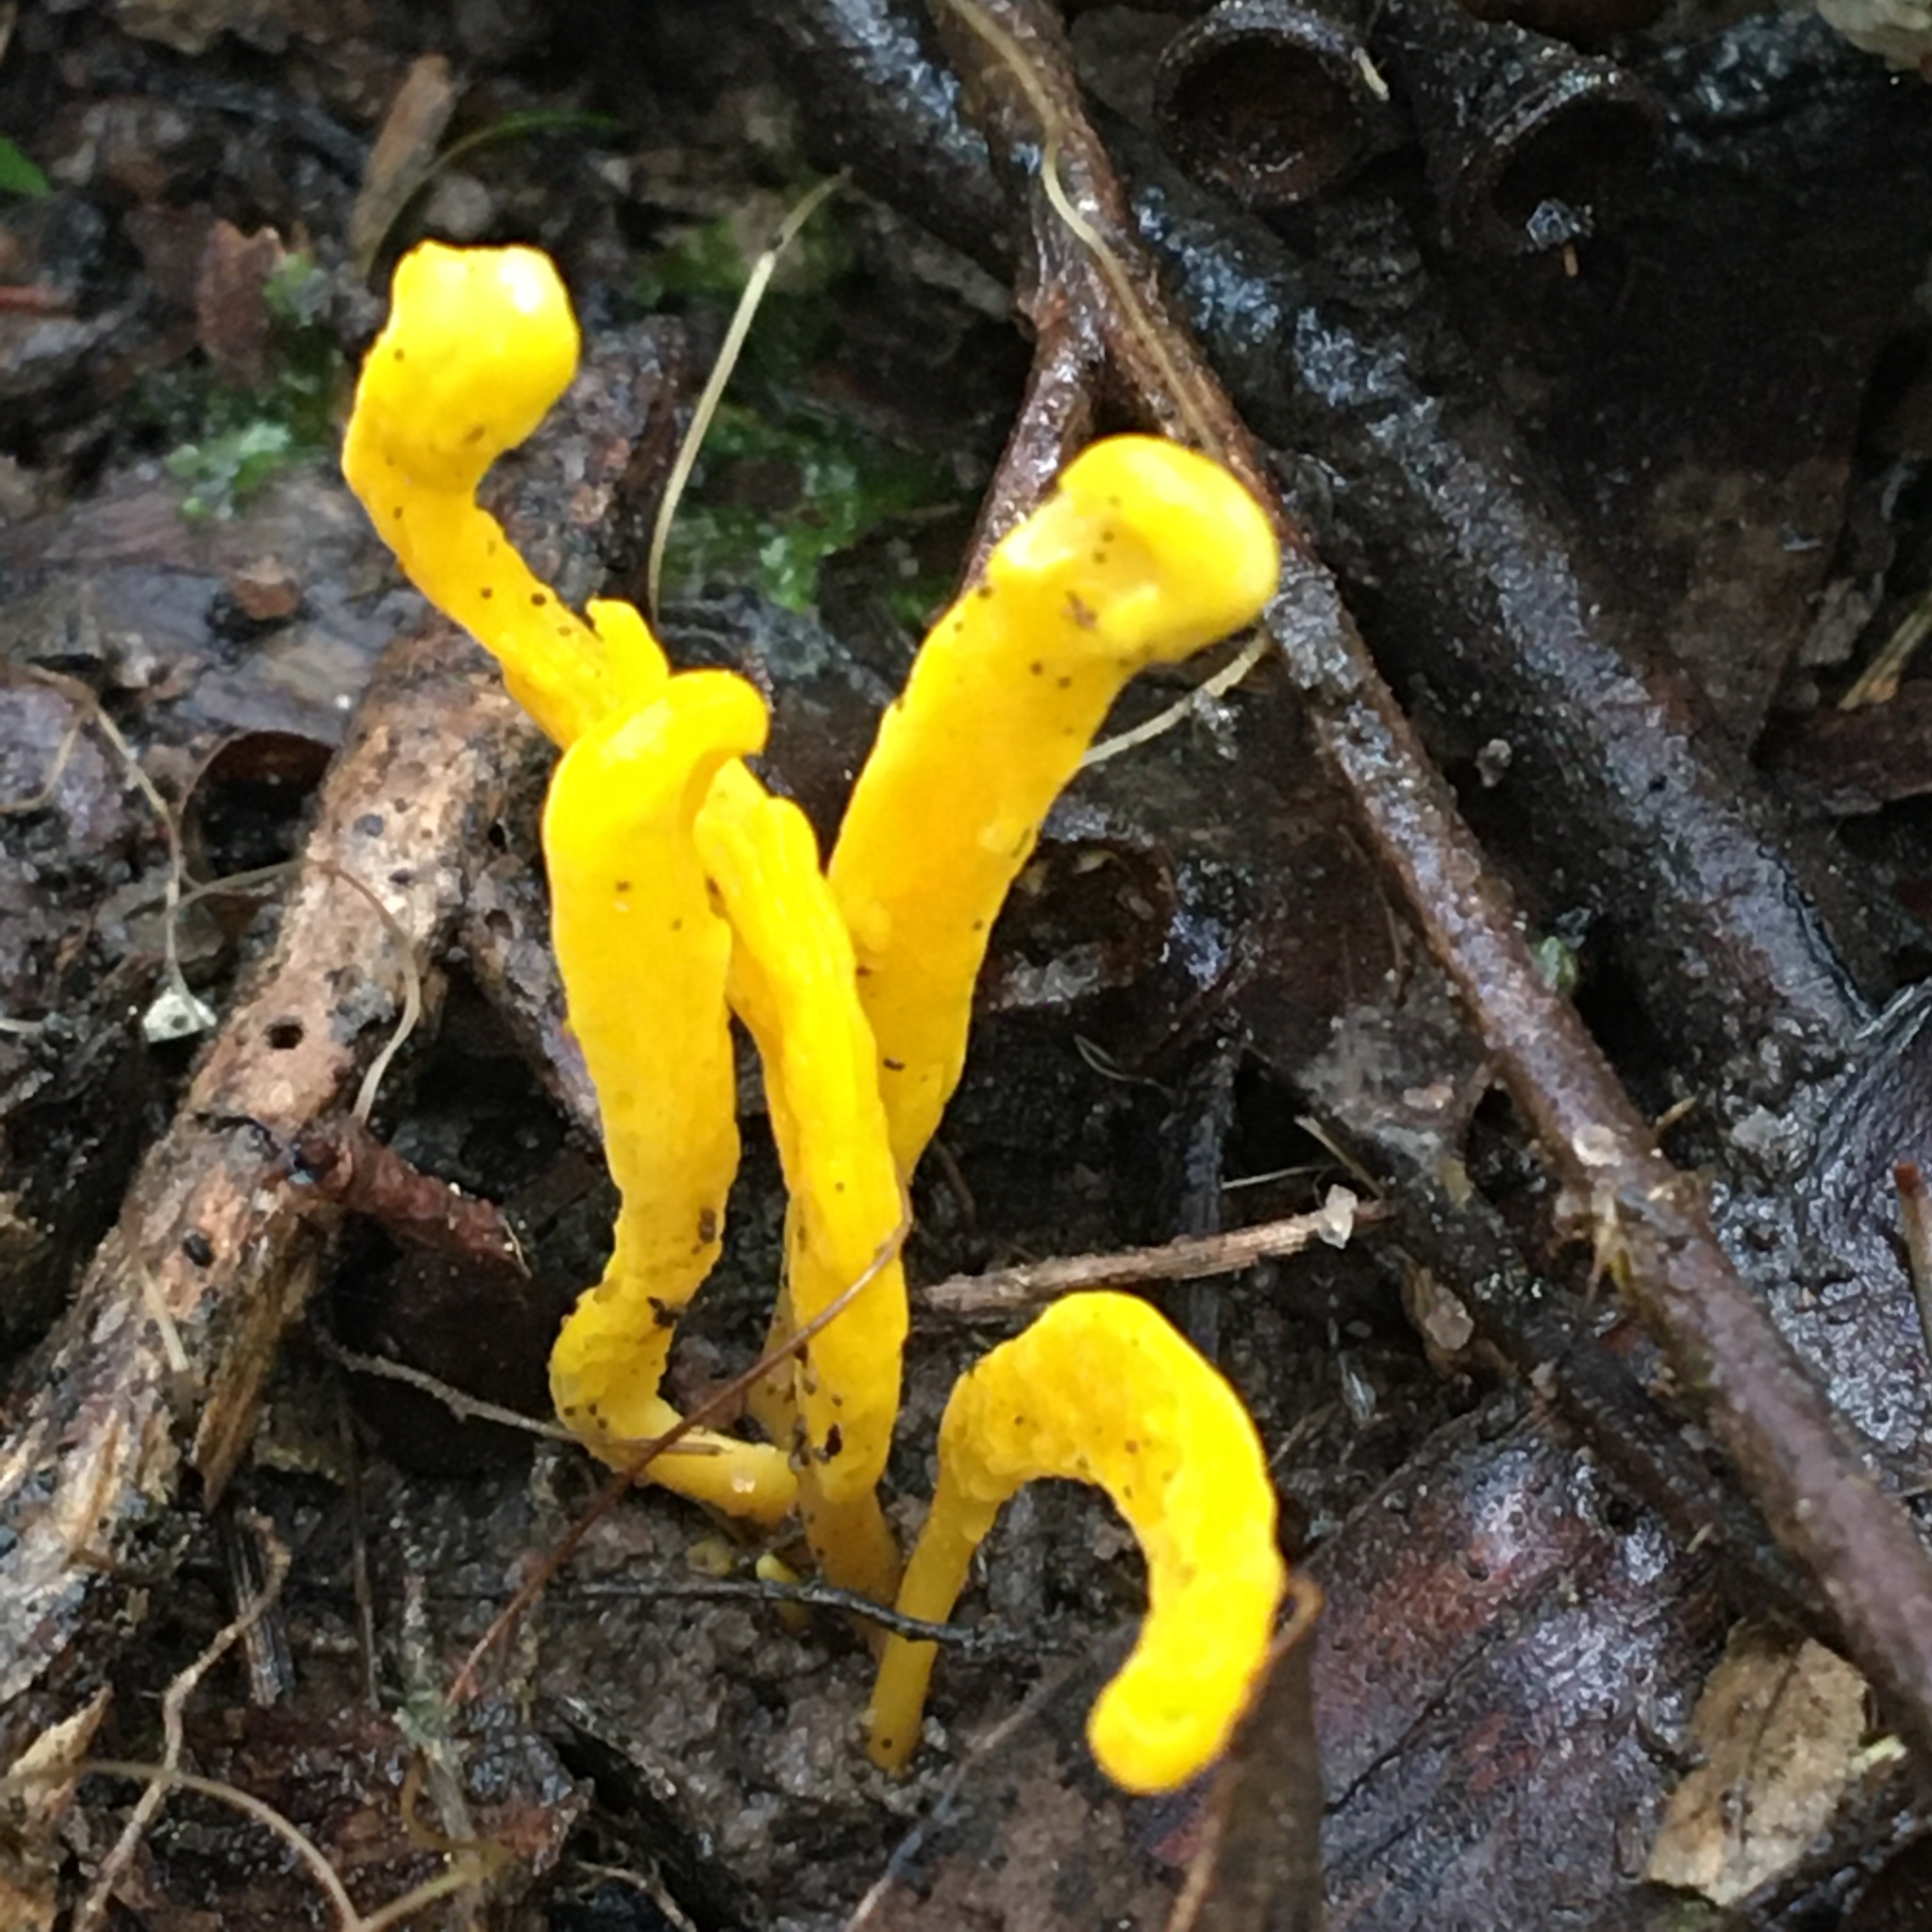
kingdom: Fungi
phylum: Basidiomycota
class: Agaricomycetes
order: Agaricales
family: Clavariaceae
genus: Clavulinopsis
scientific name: Clavulinopsis amoena
